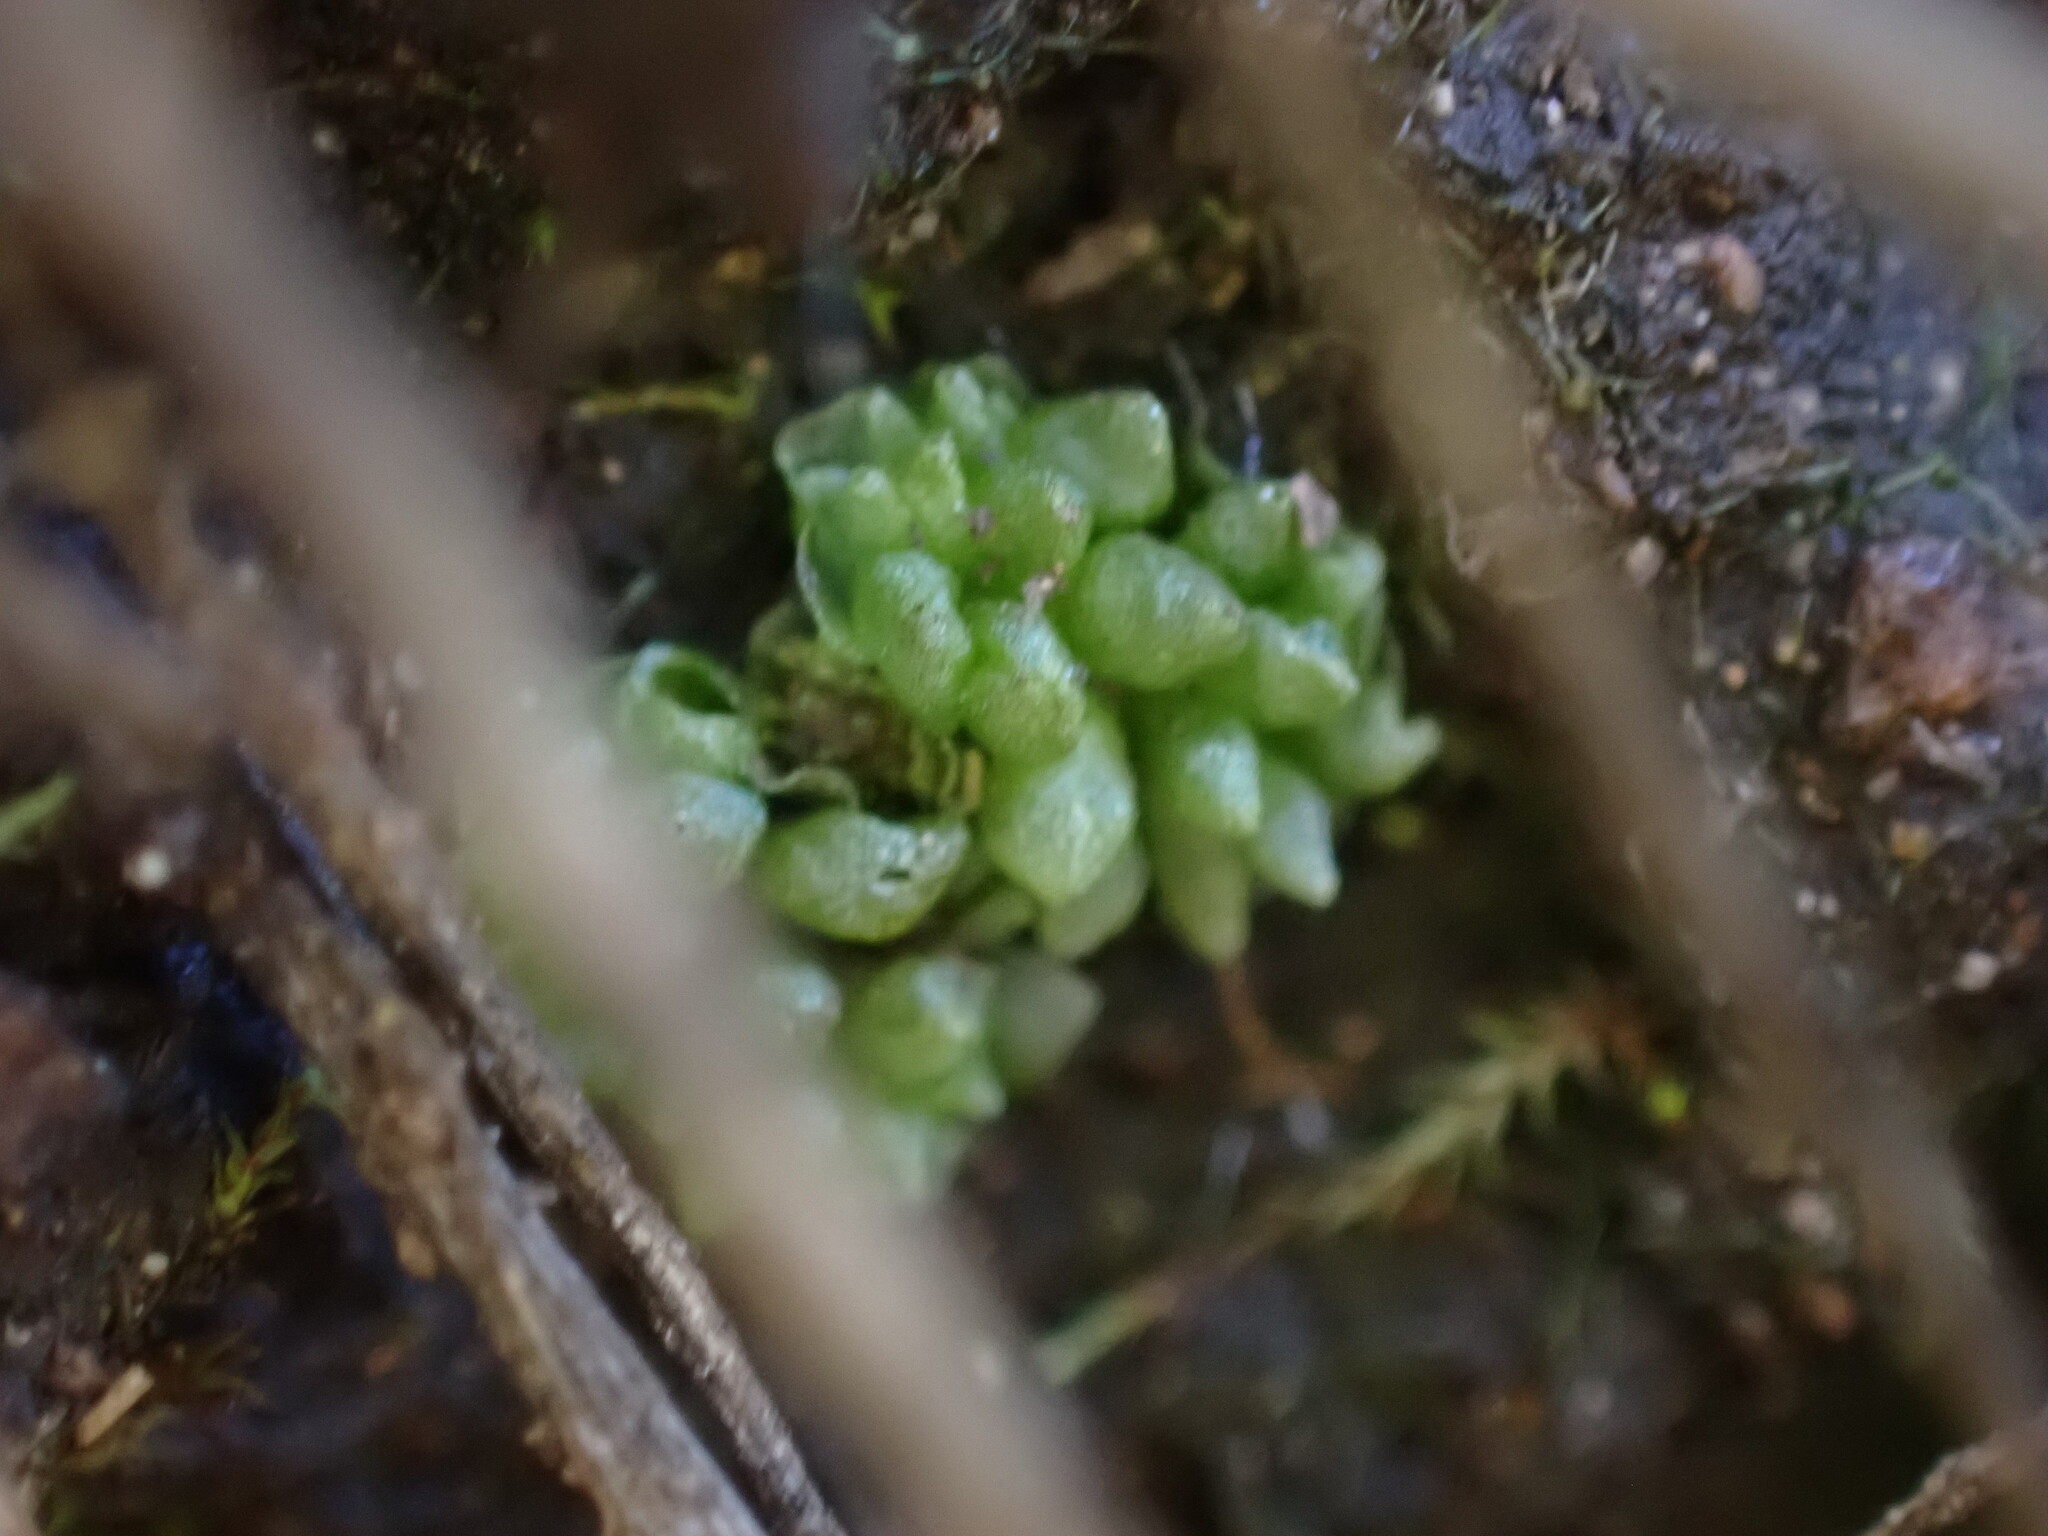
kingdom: Plantae
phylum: Marchantiophyta
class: Marchantiopsida
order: Sphaerocarpales
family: Sphaerocarpaceae
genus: Sphaerocarpos
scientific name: Sphaerocarpos texanus
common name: Texas balloonwort
